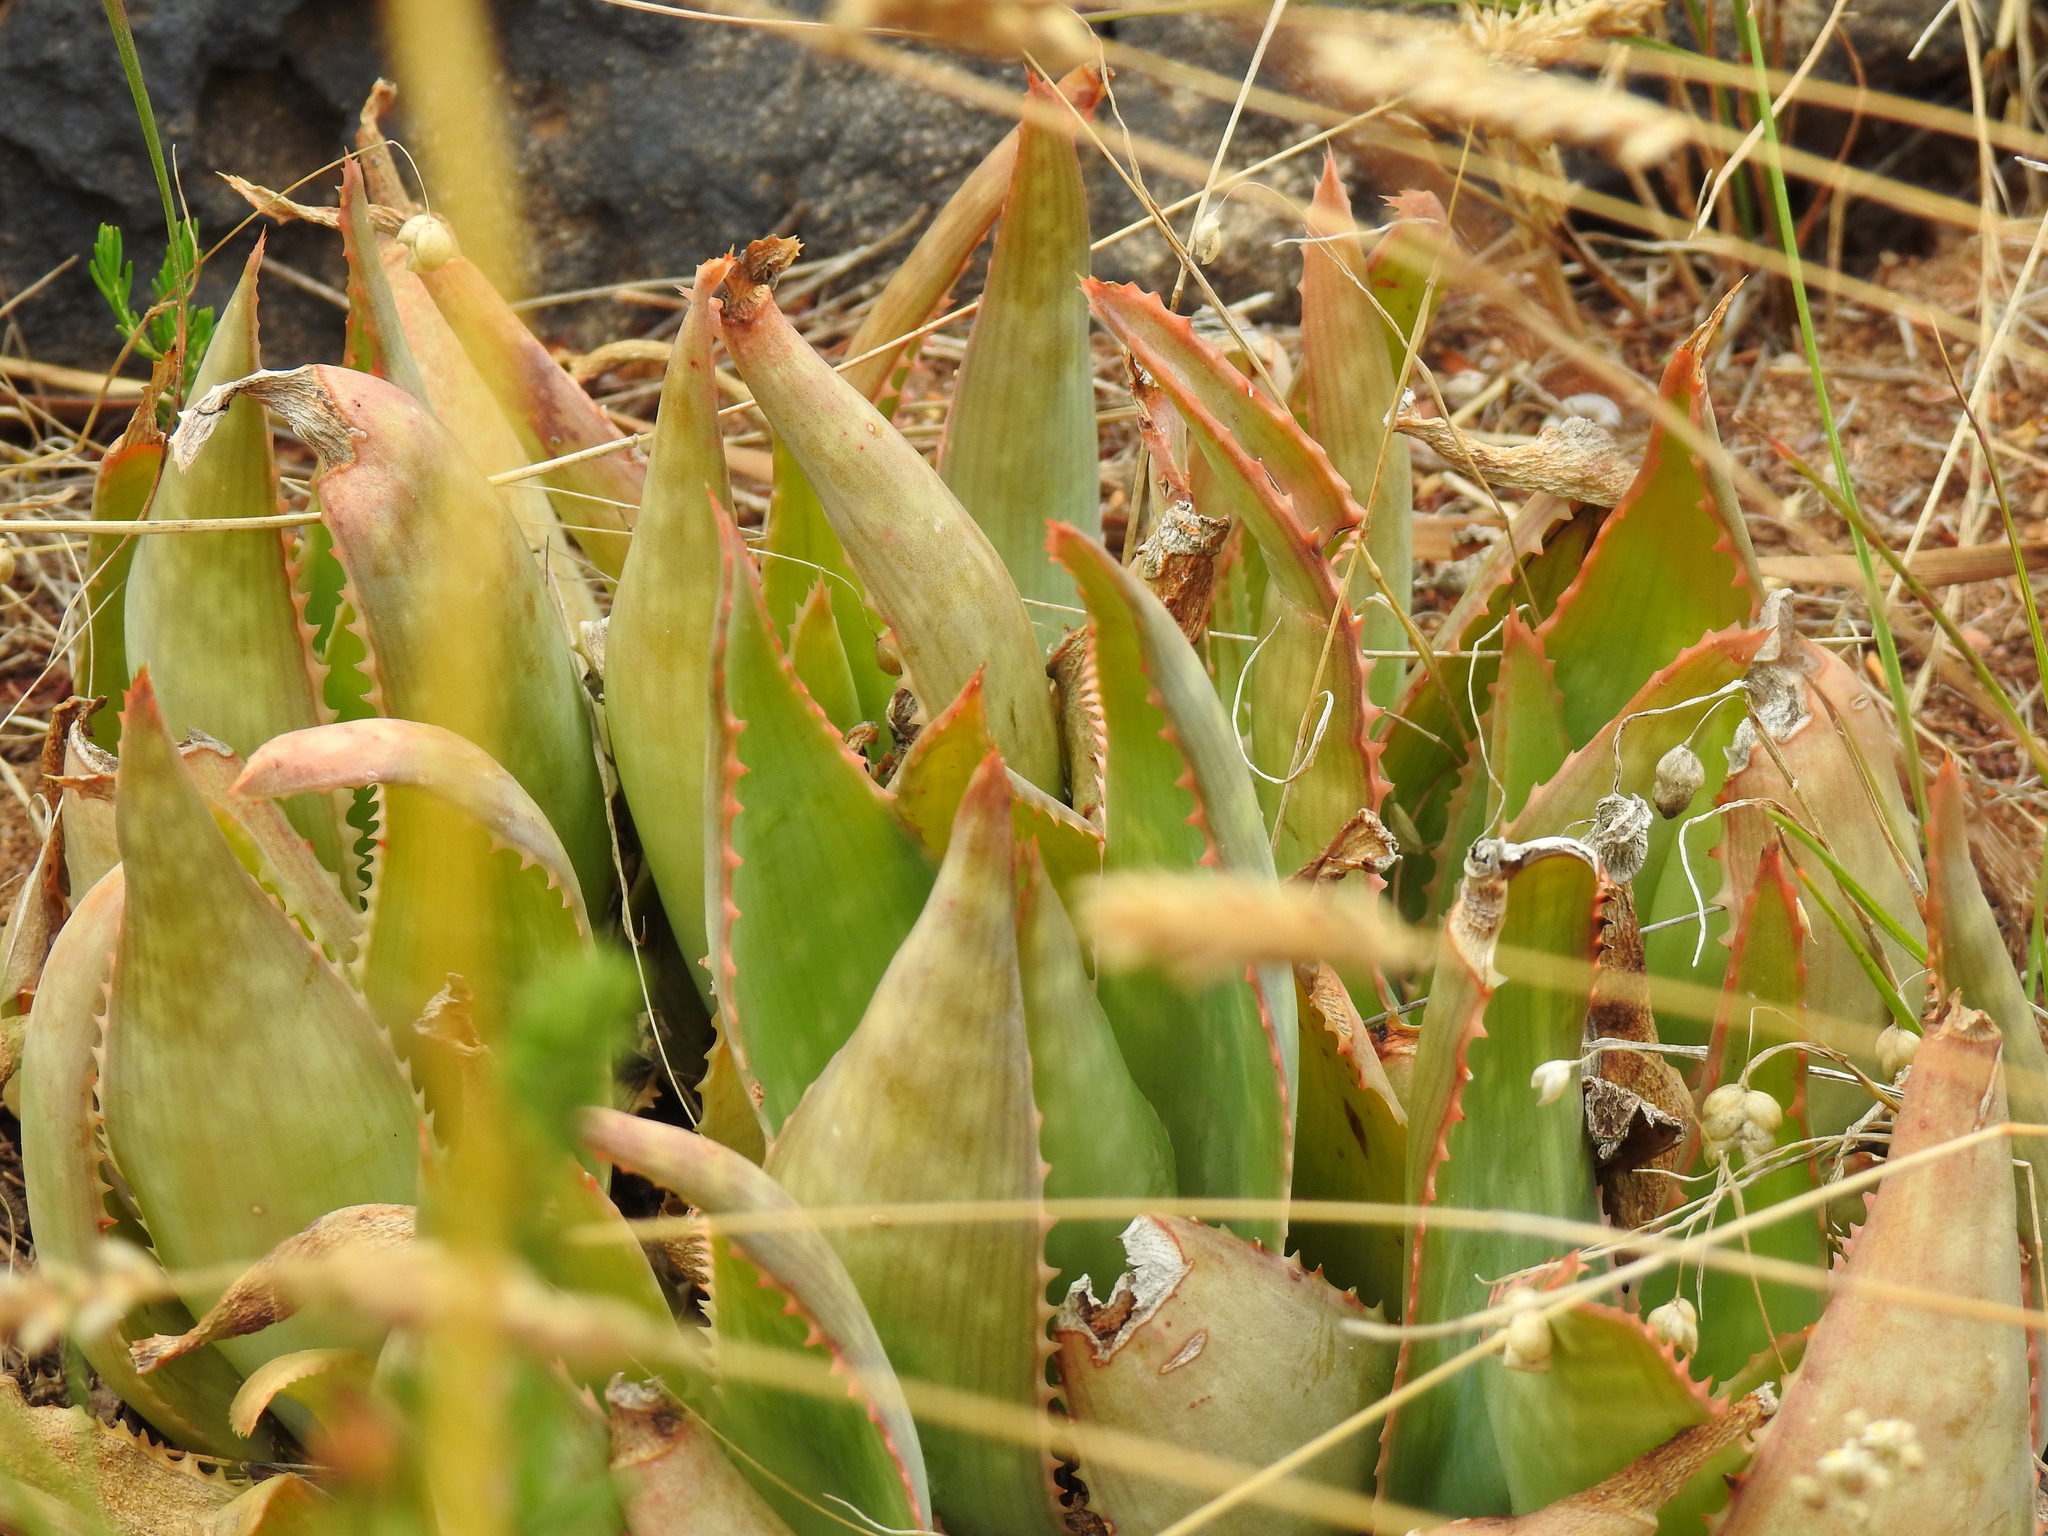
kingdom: Plantae
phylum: Tracheophyta
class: Liliopsida
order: Asparagales
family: Asphodelaceae
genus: Aloe
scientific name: Aloe schimperi
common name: Spotted aloe hybrid
